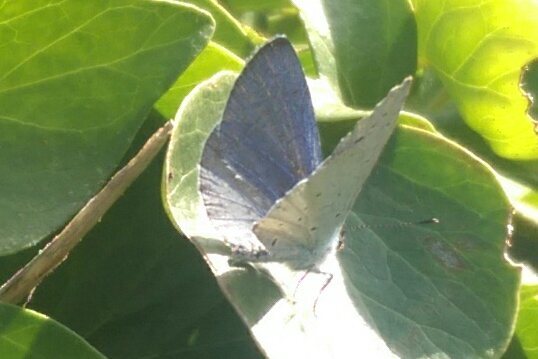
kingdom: Animalia
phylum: Arthropoda
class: Insecta
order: Lepidoptera
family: Lycaenidae
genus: Celastrina
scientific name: Celastrina argiolus
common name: Holly blue
